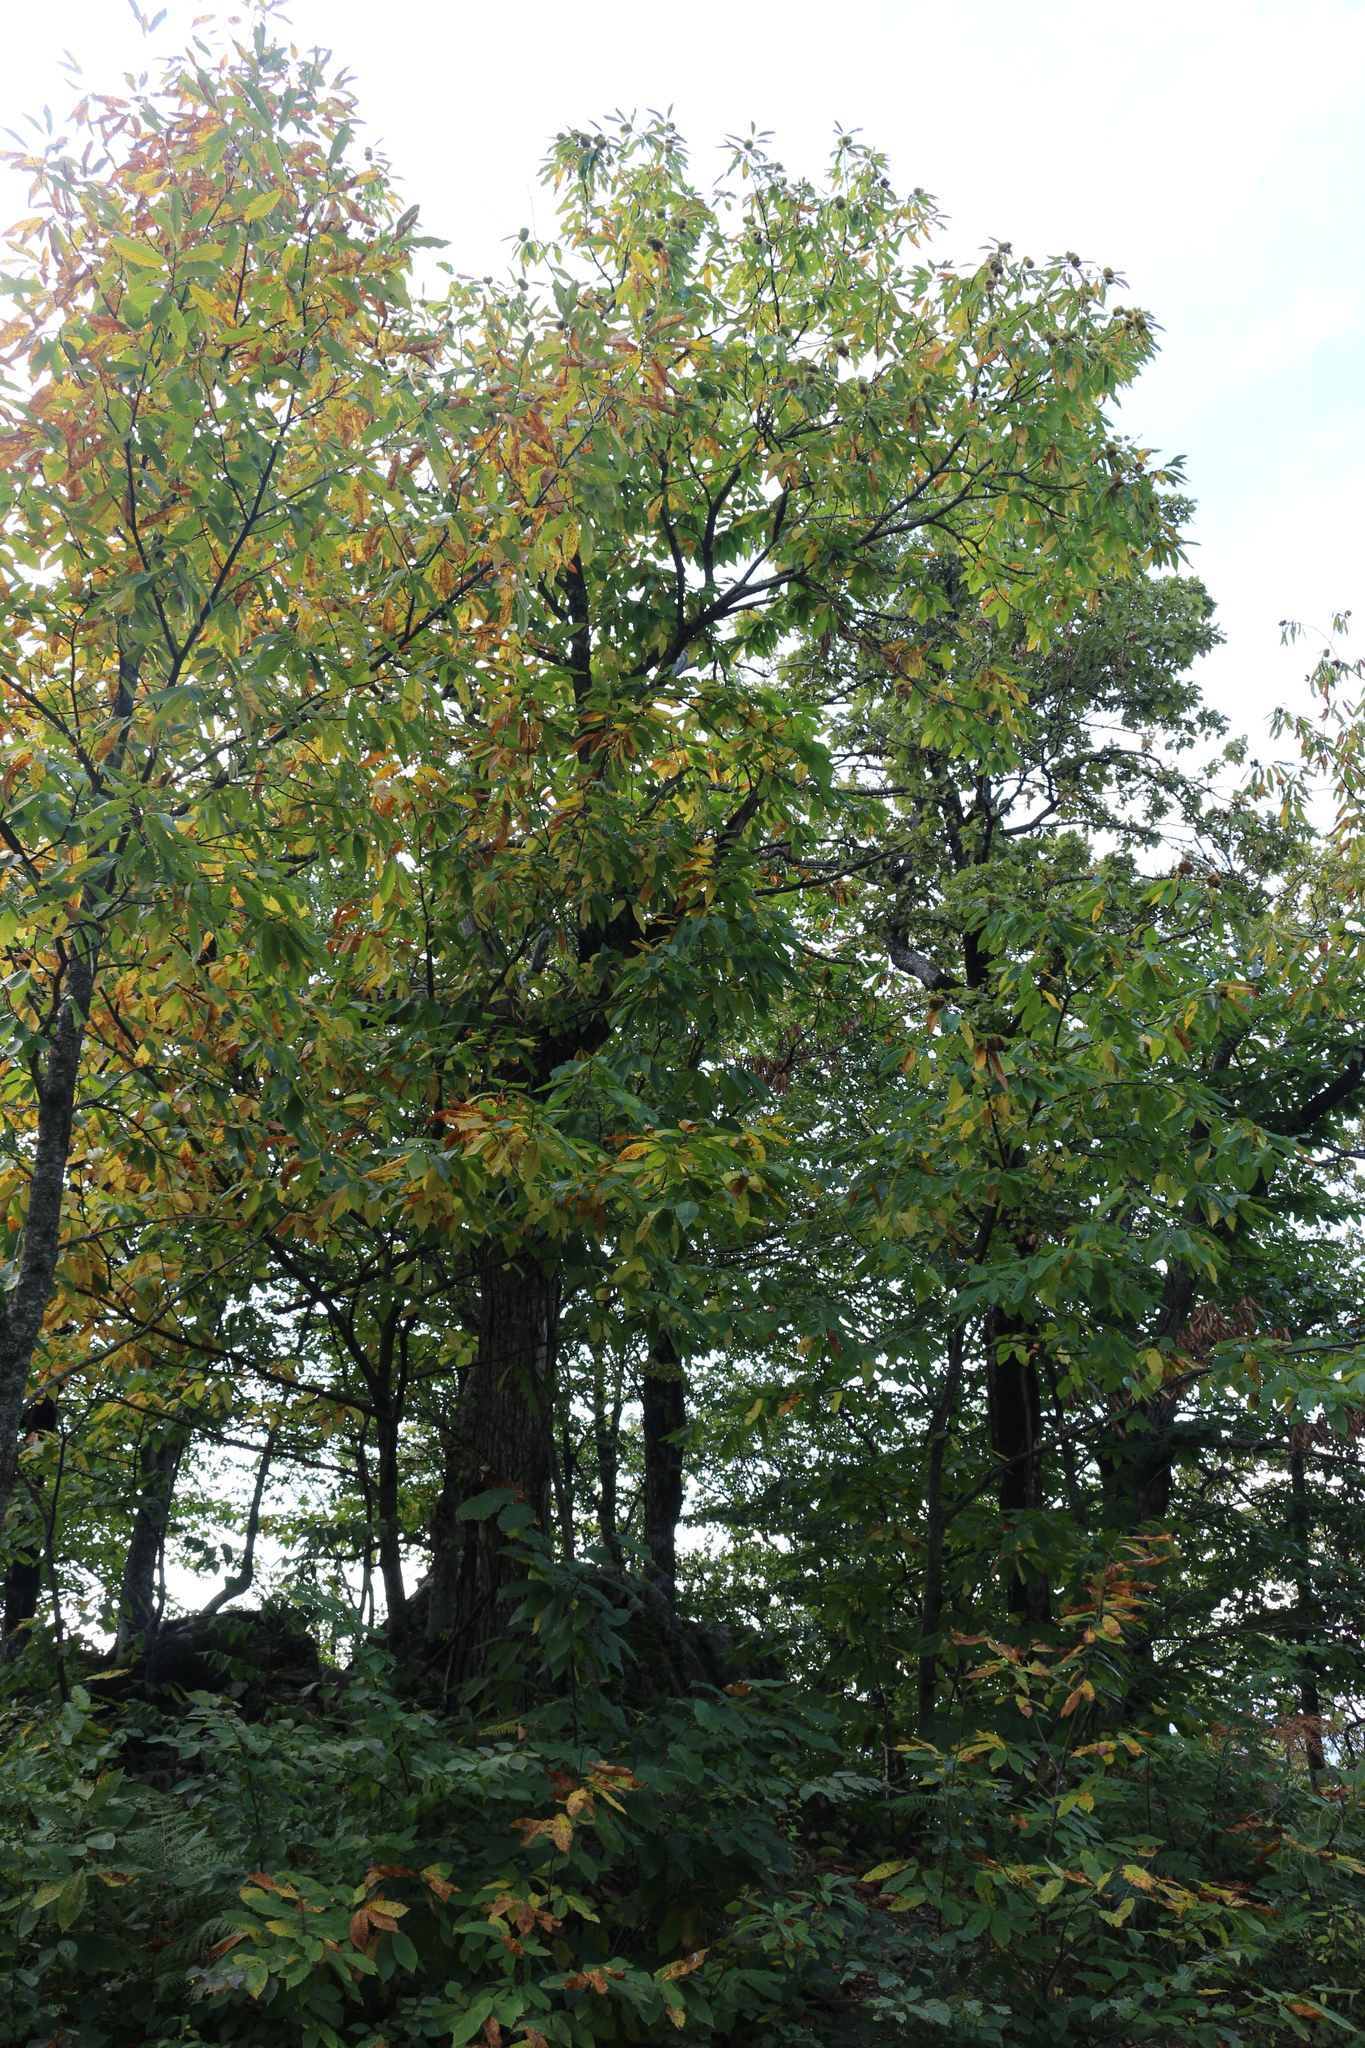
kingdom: Plantae
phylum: Tracheophyta
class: Magnoliopsida
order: Fagales
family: Fagaceae
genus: Castanea
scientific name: Castanea sativa
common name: Sweet chestnut
